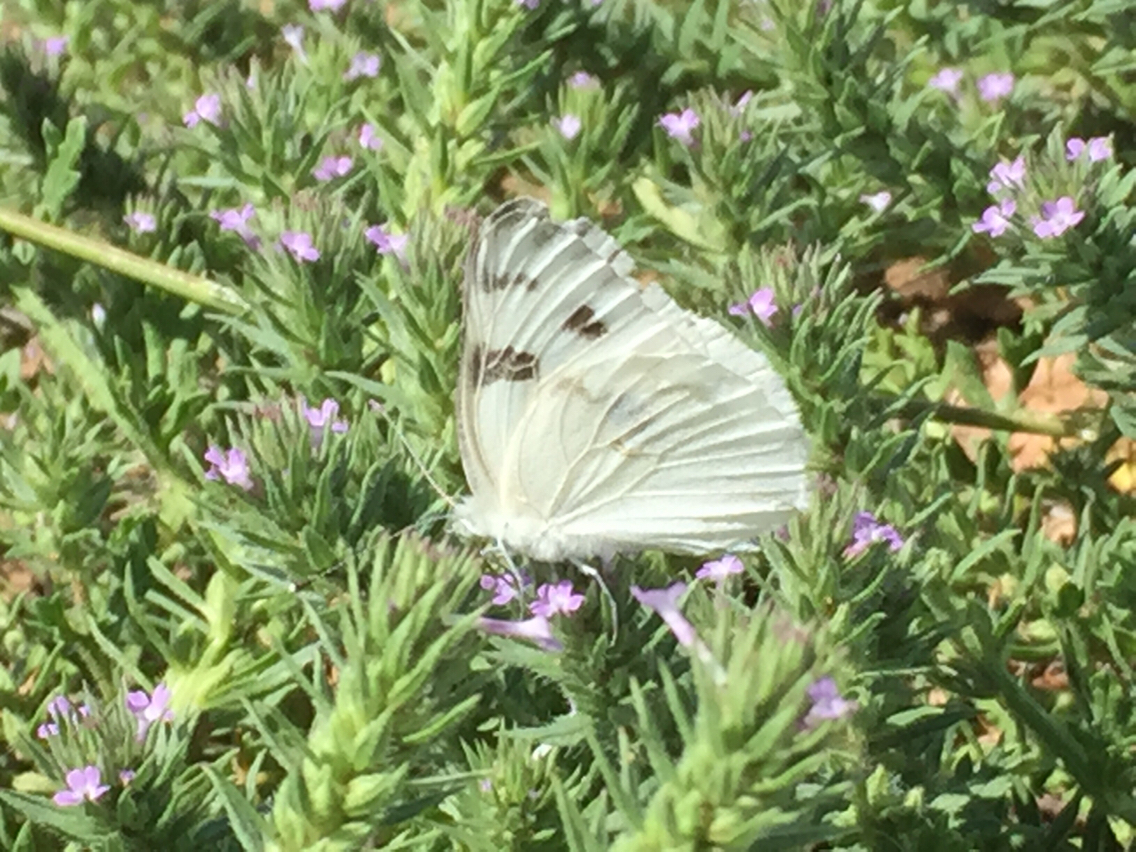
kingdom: Animalia
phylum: Arthropoda
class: Insecta
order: Lepidoptera
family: Pieridae
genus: Pontia
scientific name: Pontia protodice
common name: Checkered white
